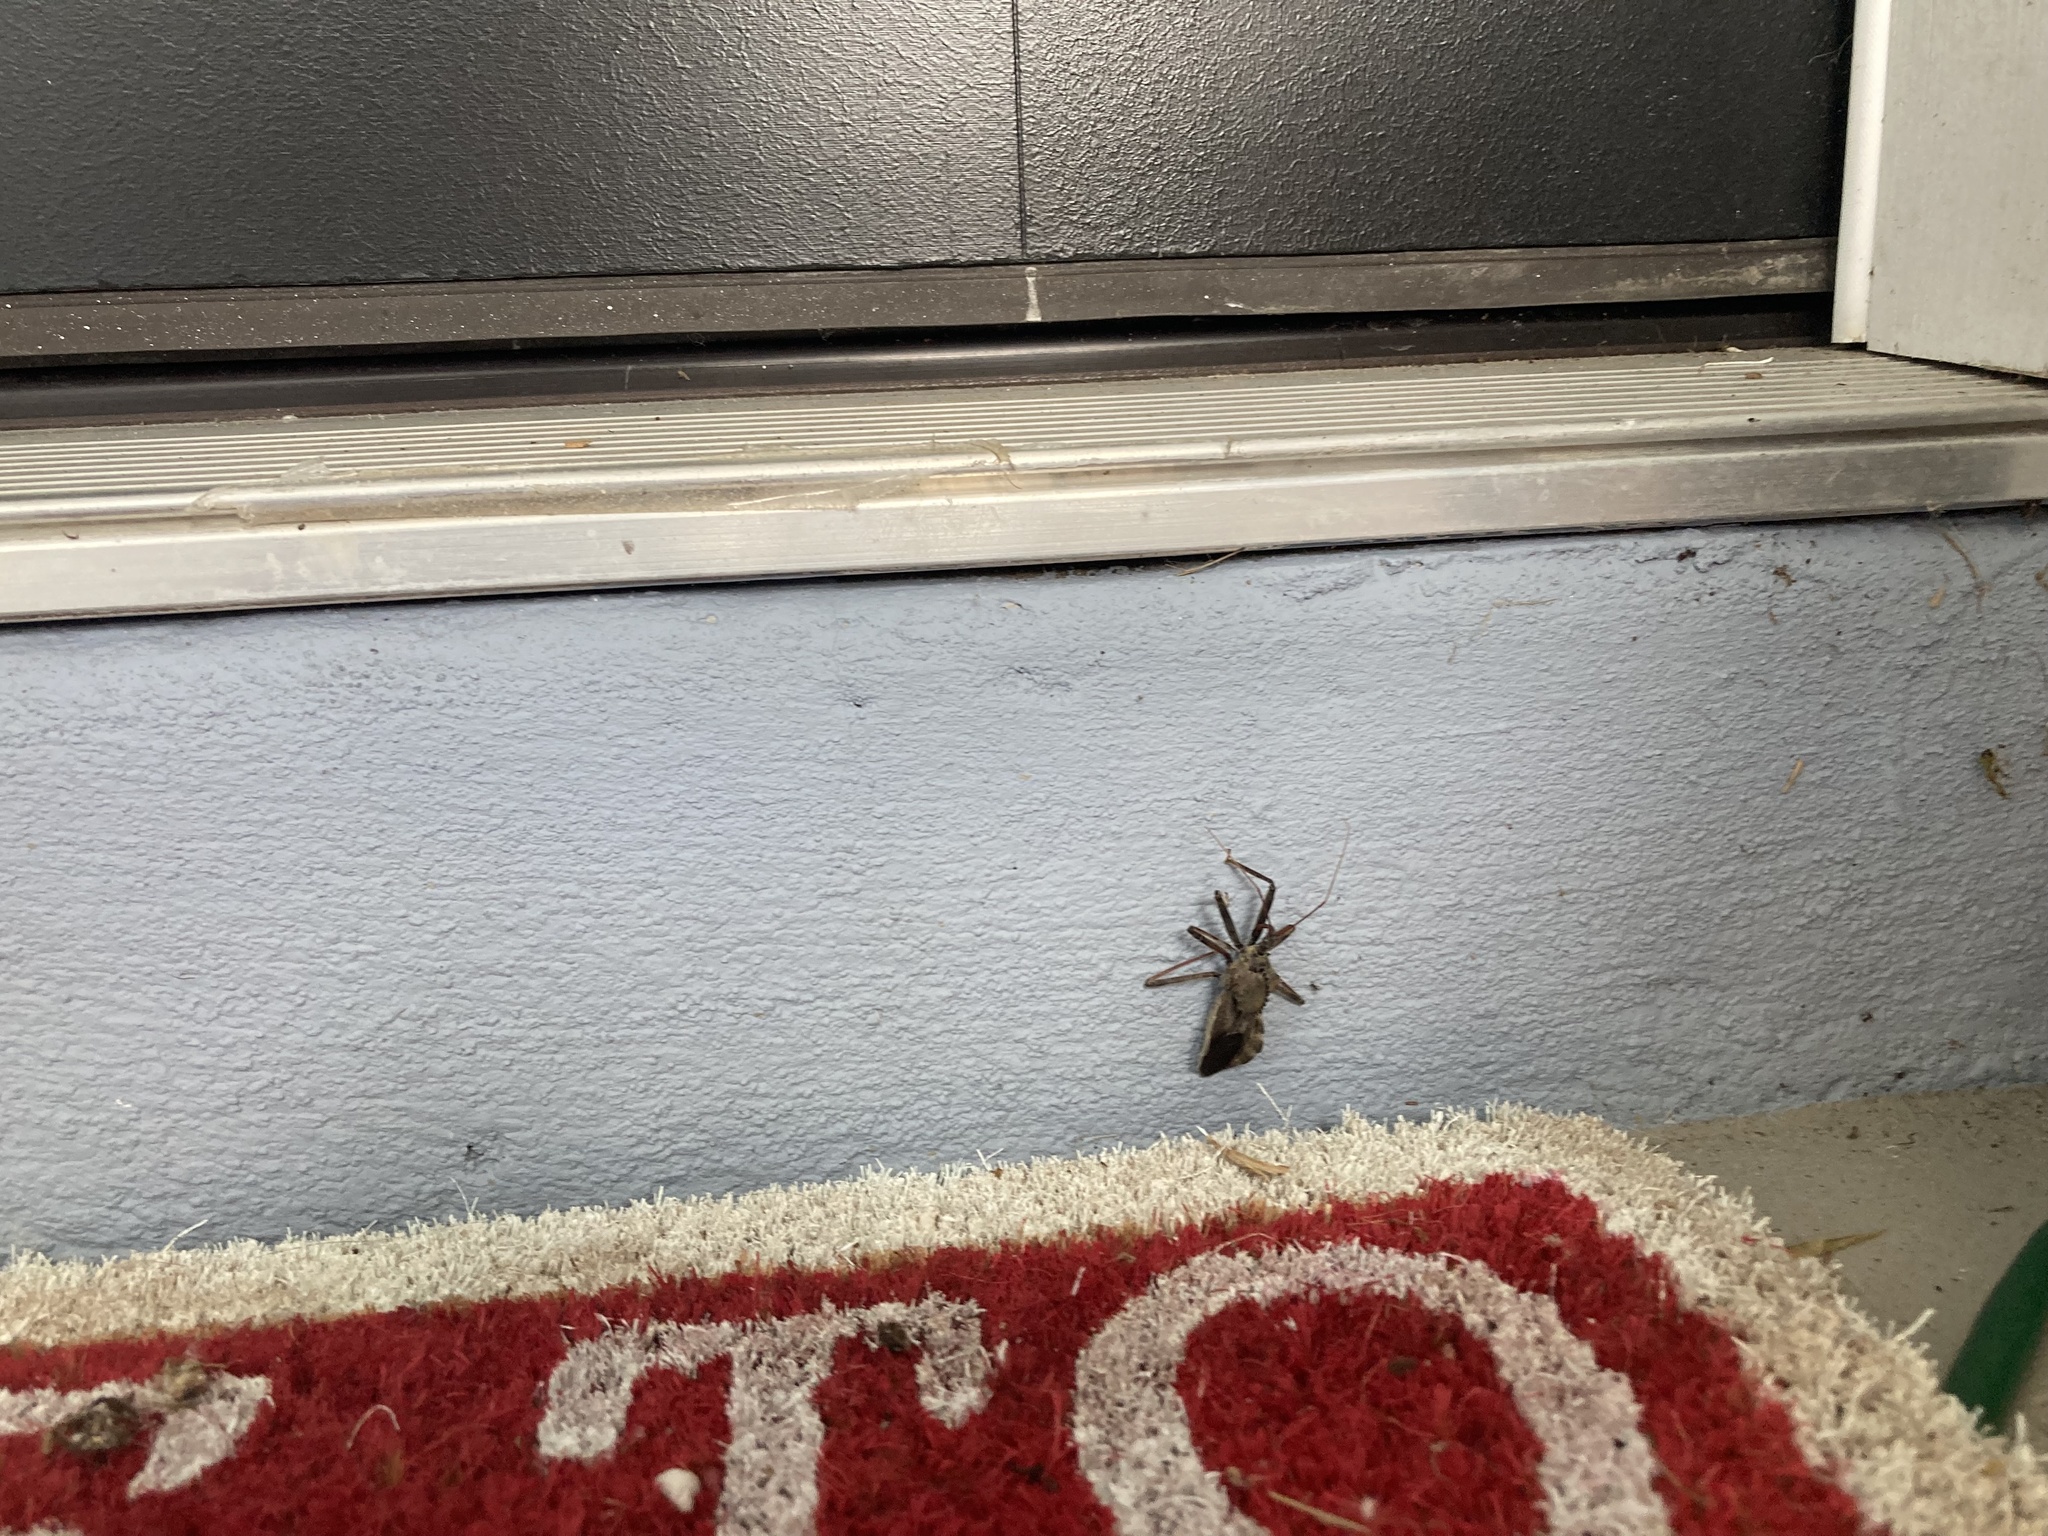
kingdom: Animalia
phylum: Arthropoda
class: Insecta
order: Hemiptera
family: Reduviidae
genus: Arilus
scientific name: Arilus cristatus
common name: North american wheel bug
